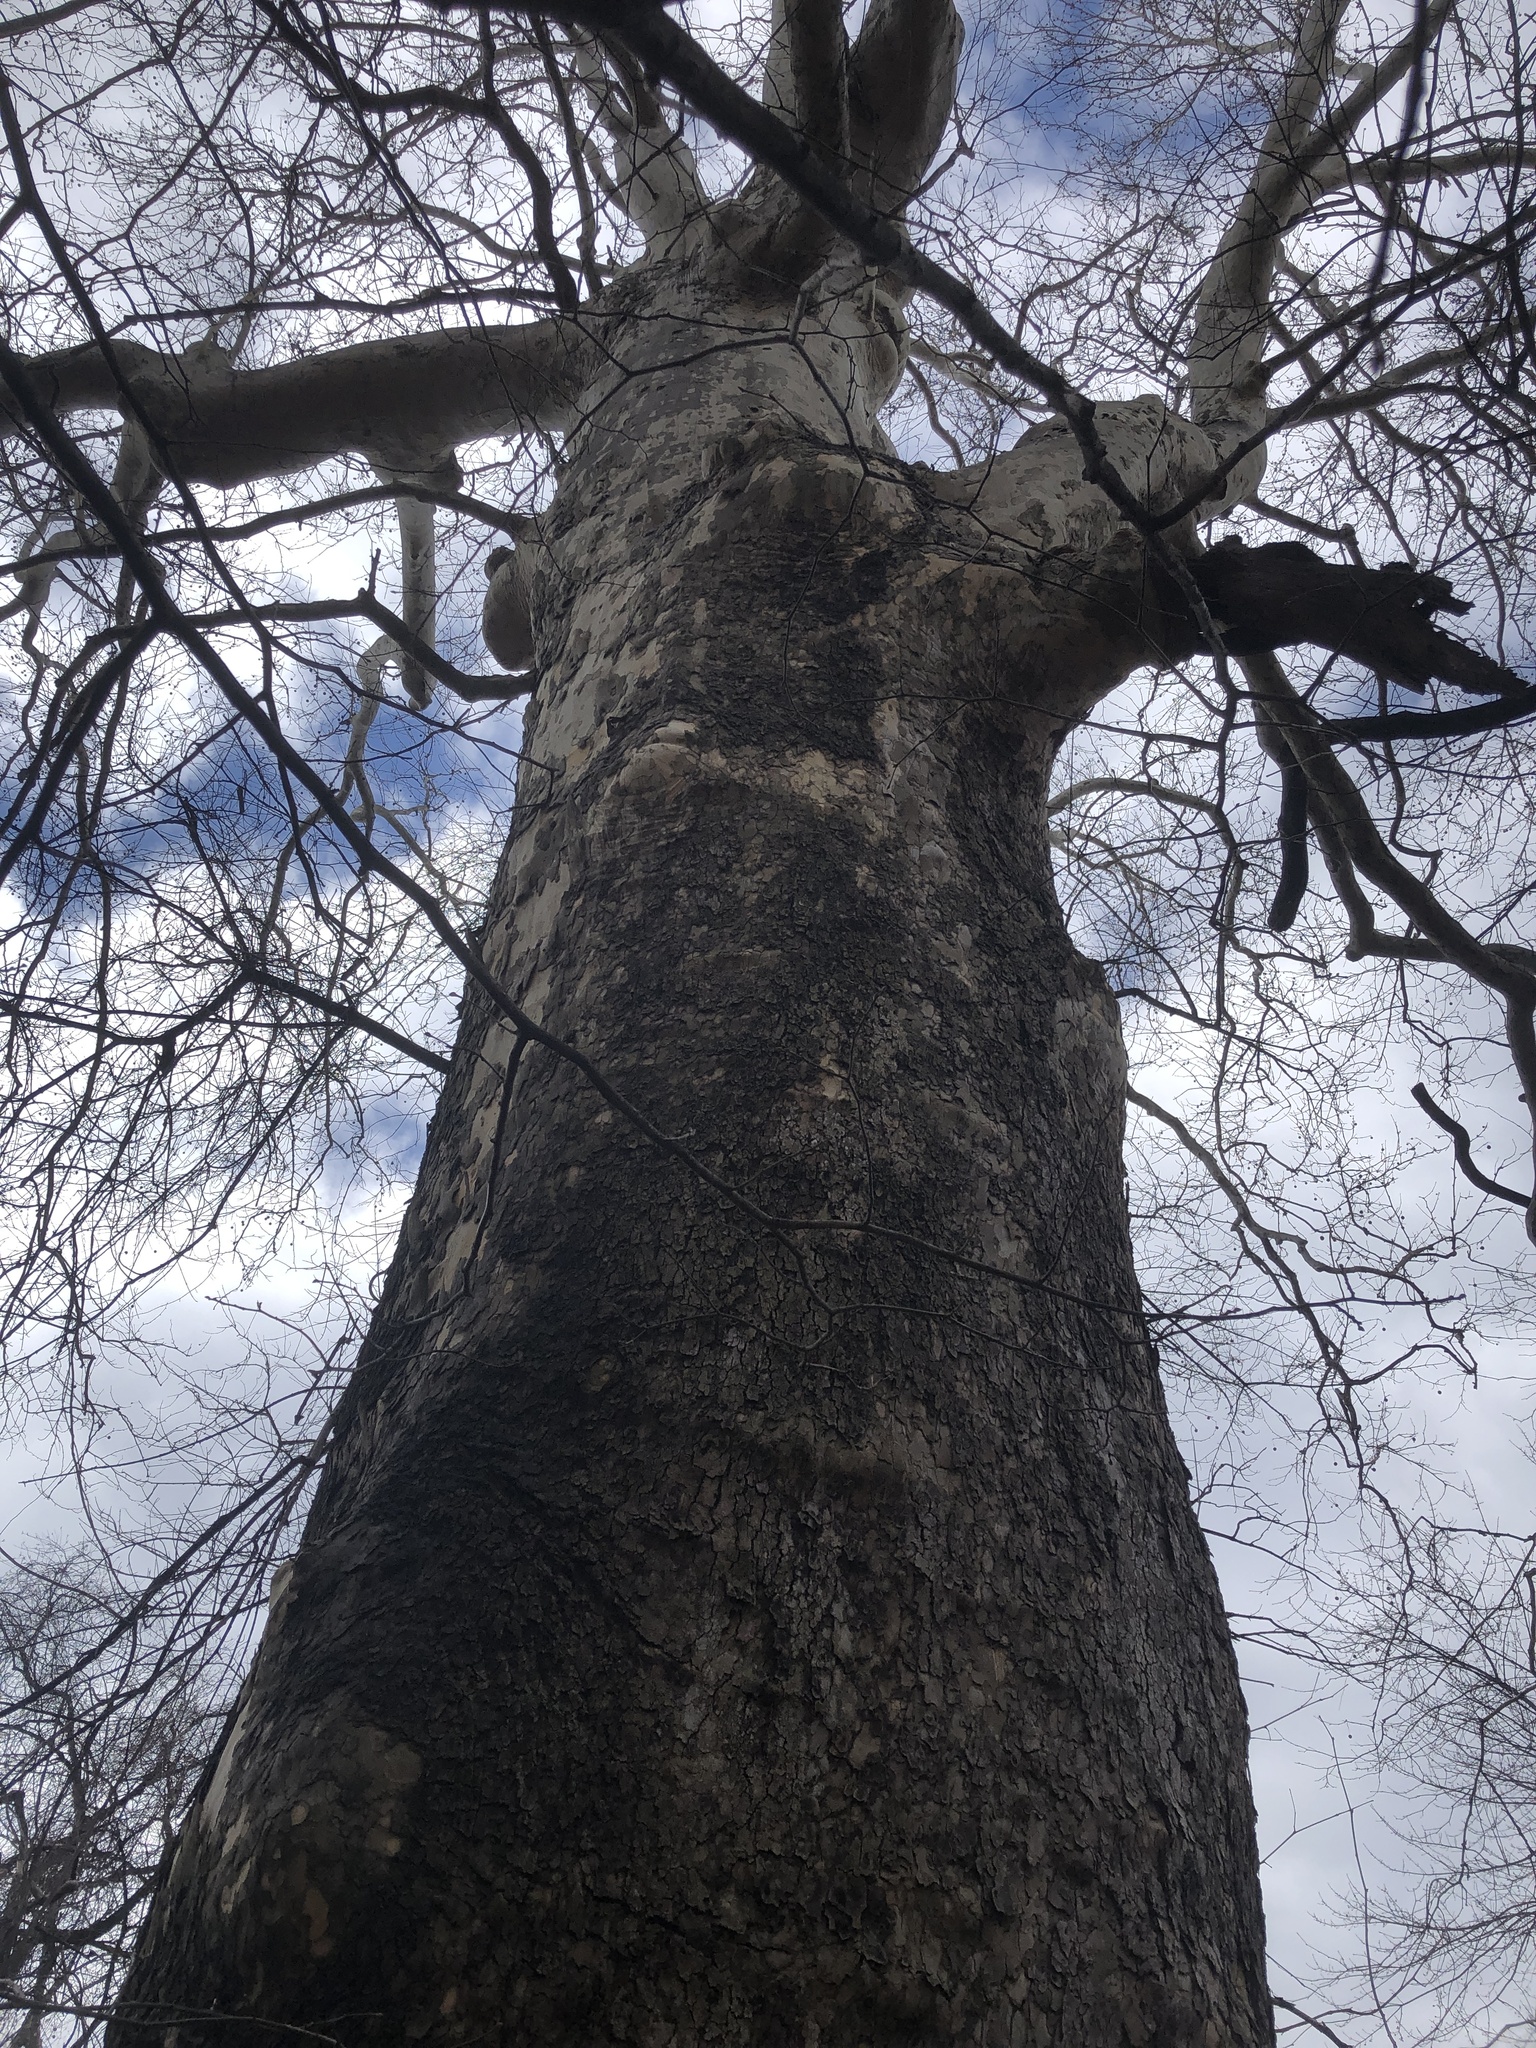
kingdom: Plantae
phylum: Tracheophyta
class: Magnoliopsida
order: Proteales
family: Platanaceae
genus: Platanus
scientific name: Platanus occidentalis
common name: American sycamore
